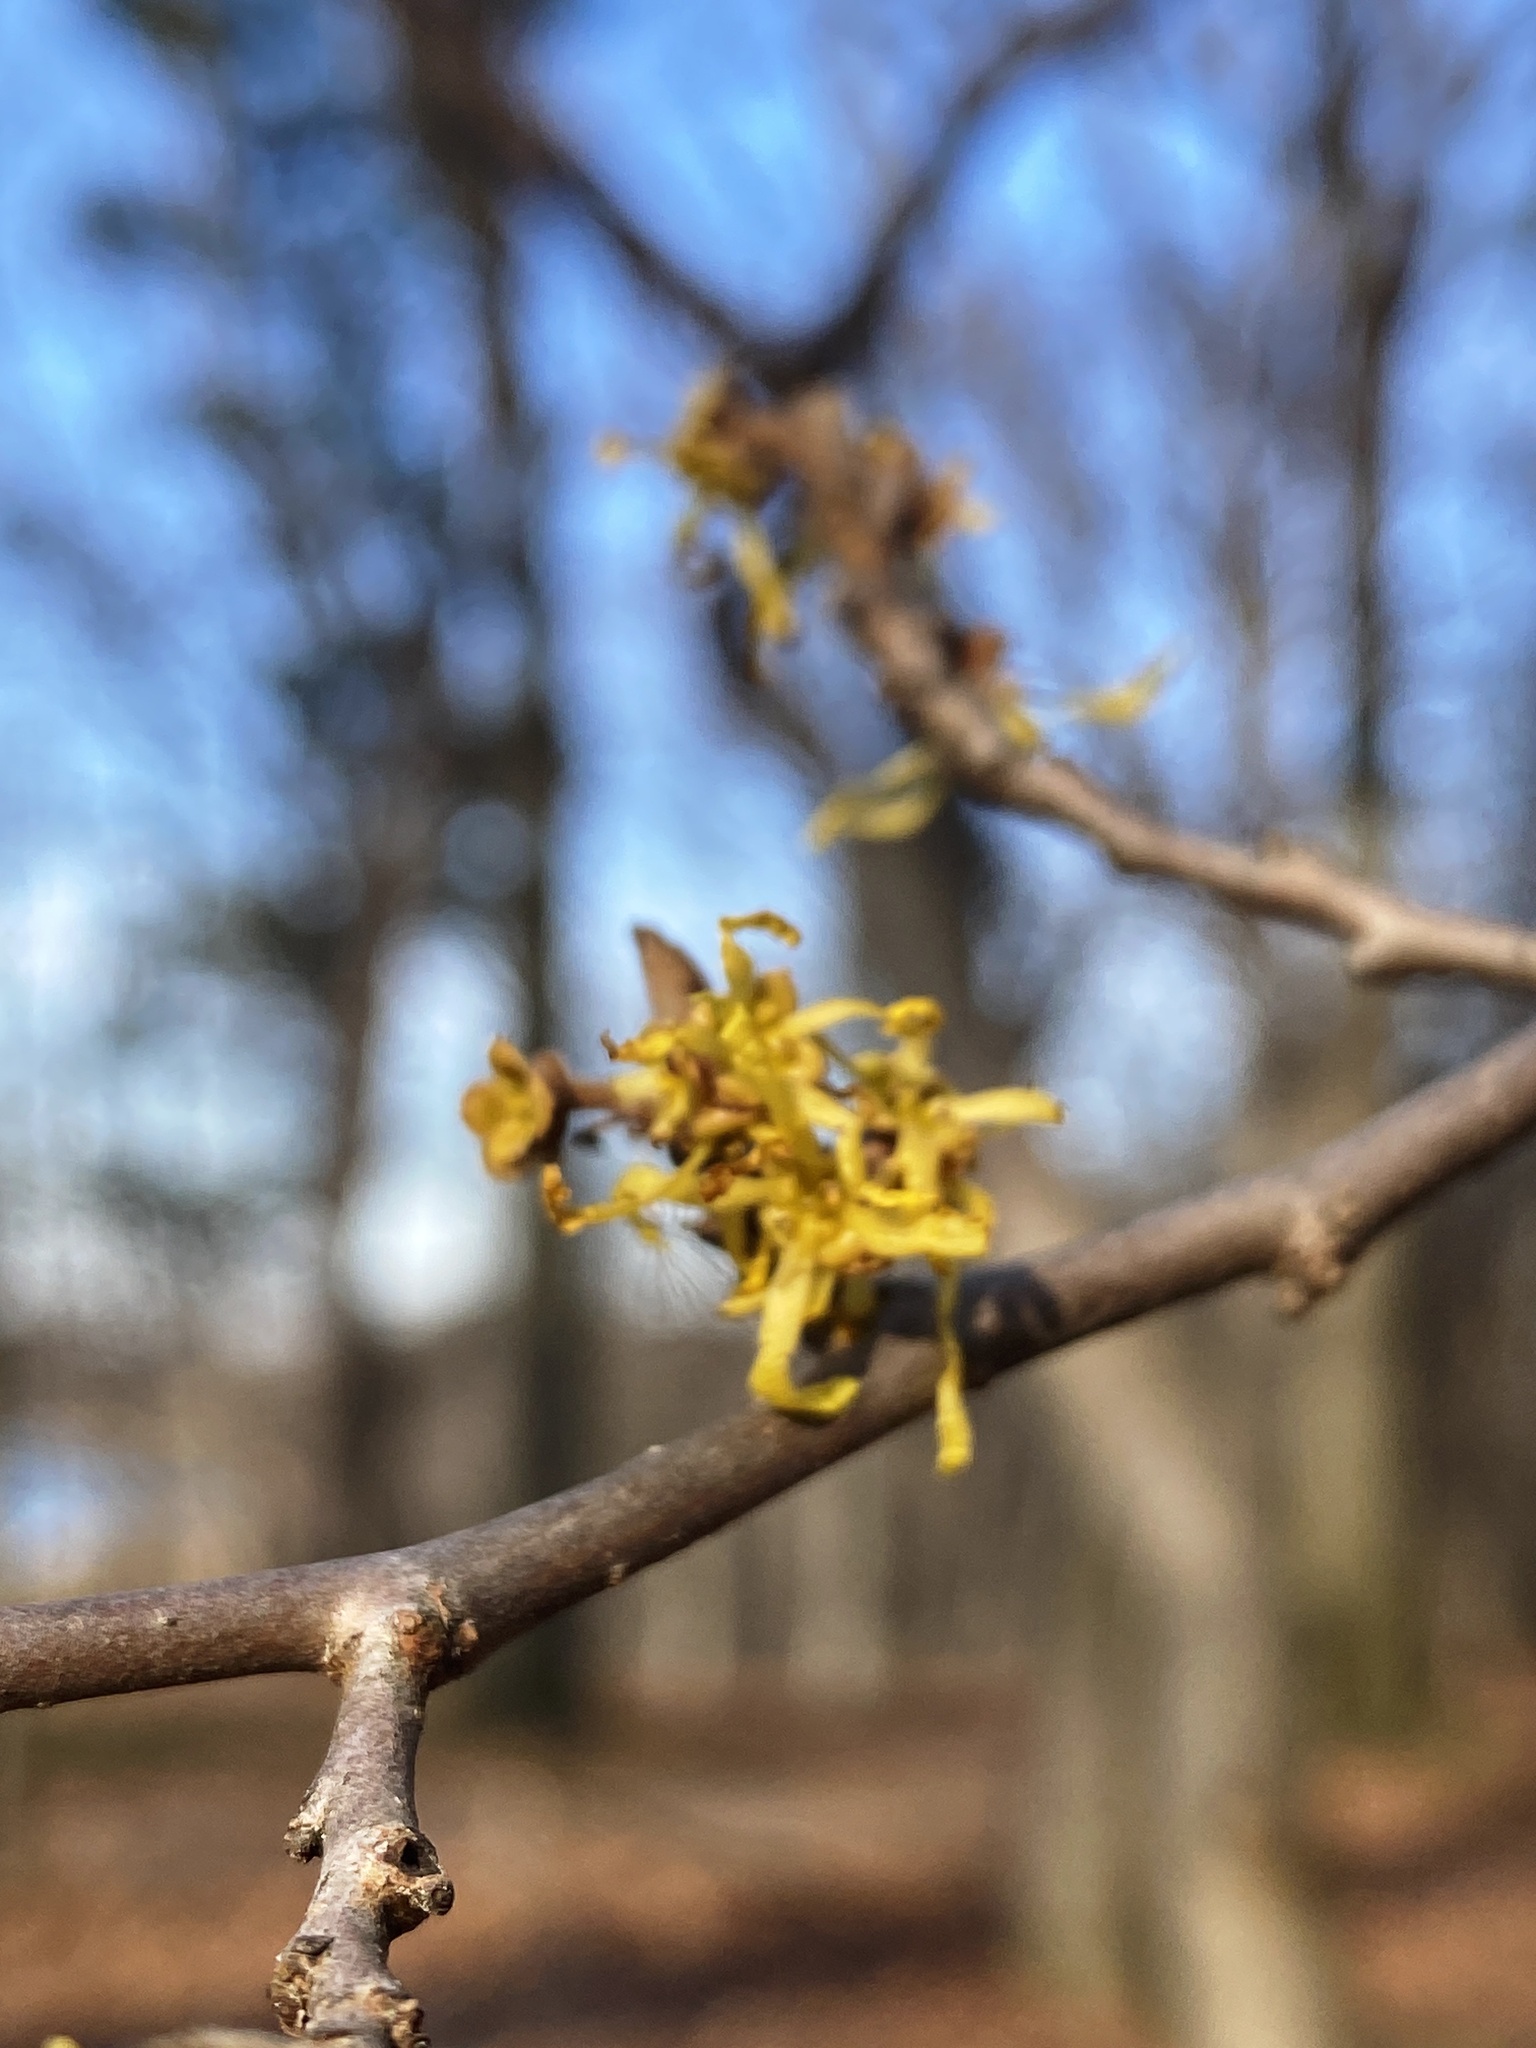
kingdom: Plantae
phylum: Tracheophyta
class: Magnoliopsida
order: Saxifragales
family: Hamamelidaceae
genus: Hamamelis
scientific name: Hamamelis virginiana
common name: Witch-hazel
